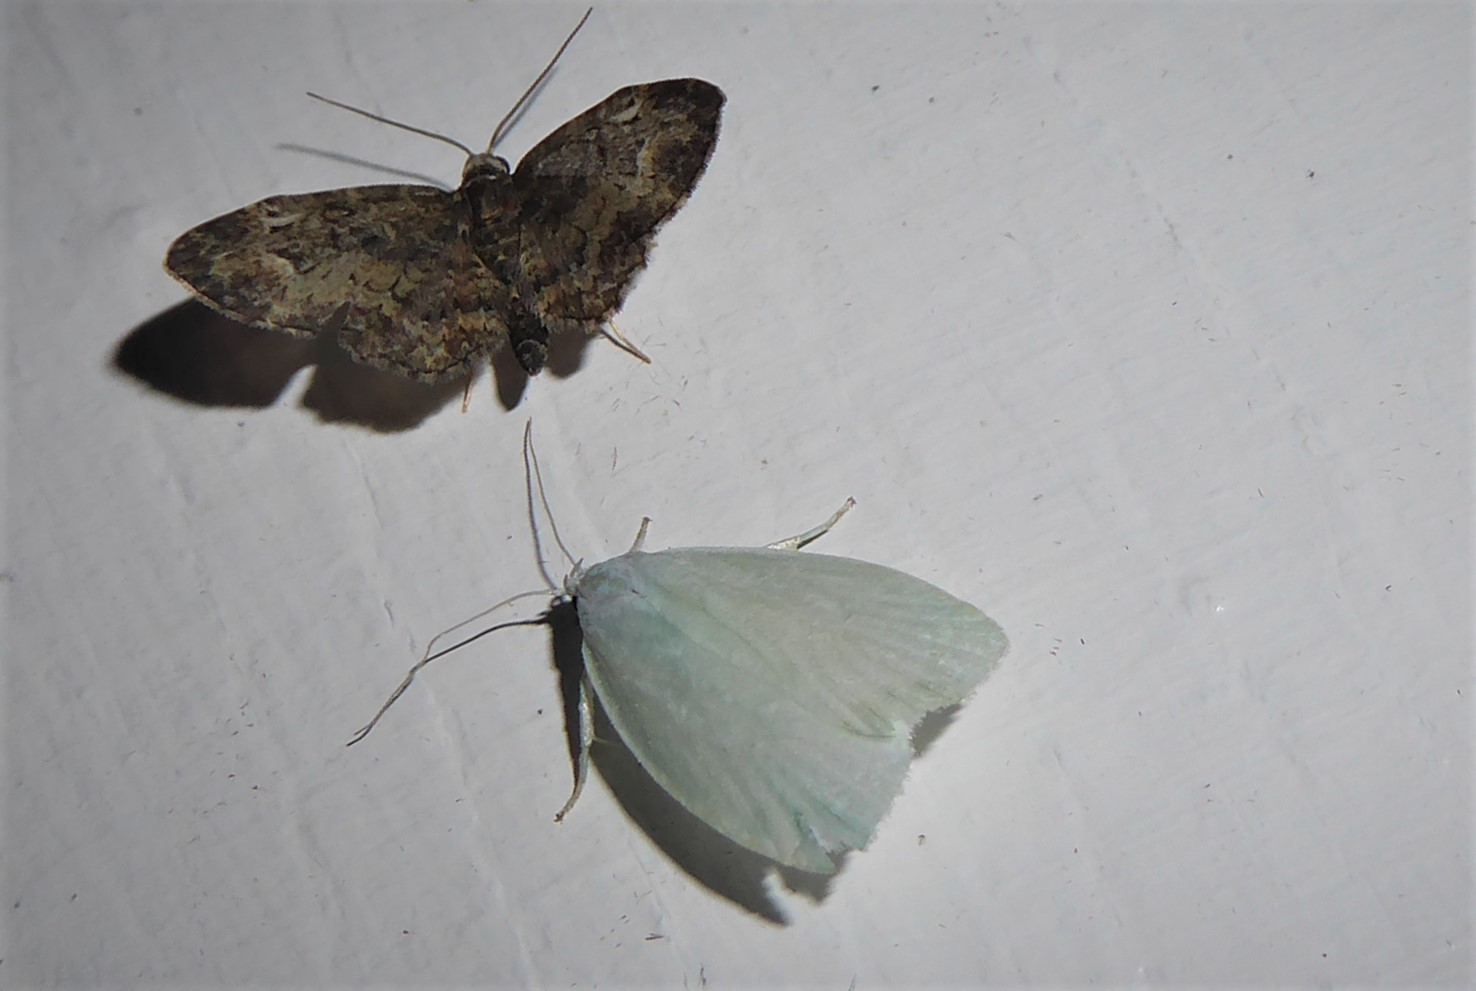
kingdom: Animalia
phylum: Arthropoda
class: Insecta
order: Lepidoptera
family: Oecophoridae
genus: Nymphostola
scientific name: Nymphostola galactina
